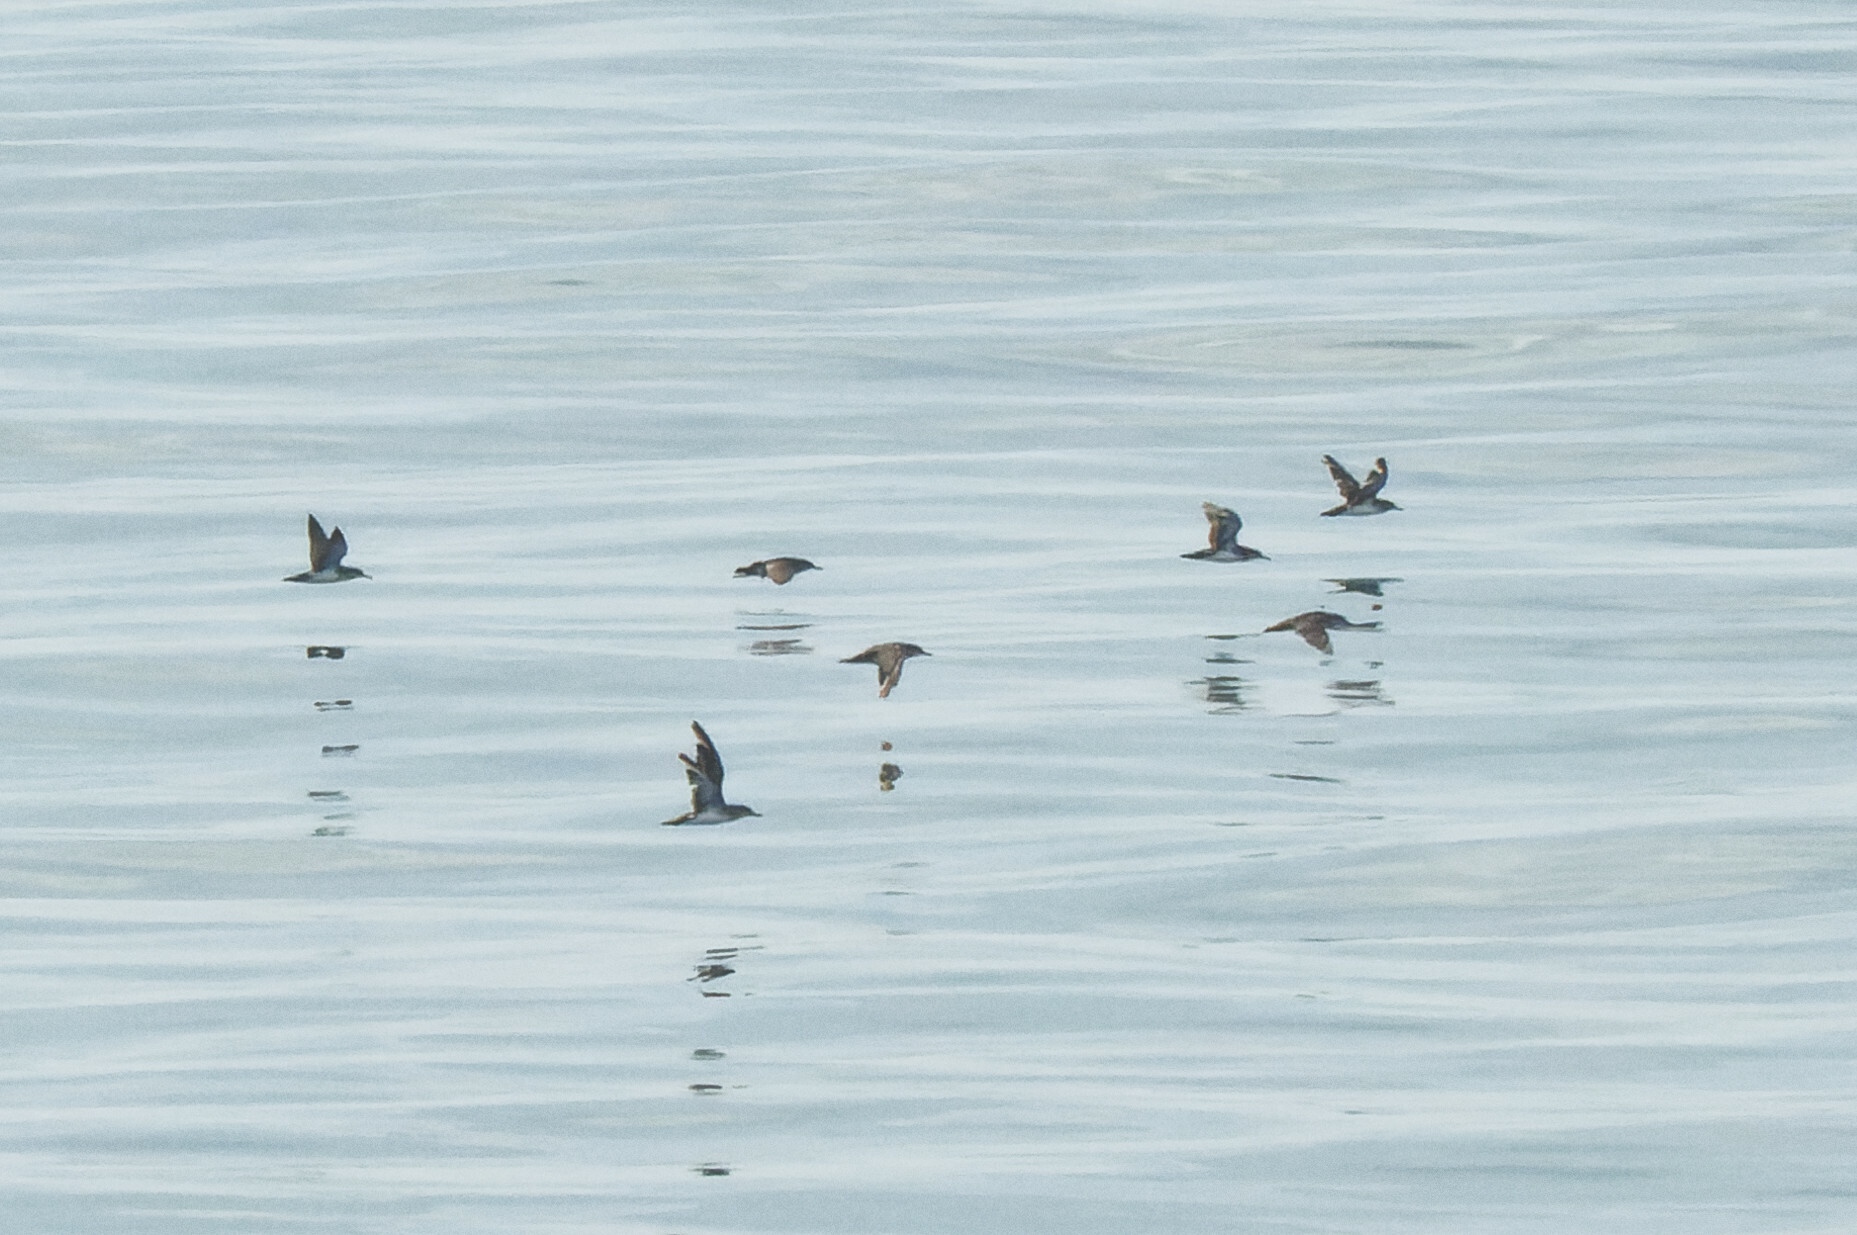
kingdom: Animalia
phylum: Chordata
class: Aves
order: Procellariiformes
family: Procellariidae
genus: Puffinus
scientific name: Puffinus opisthomelas
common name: Black-vented shearwater
